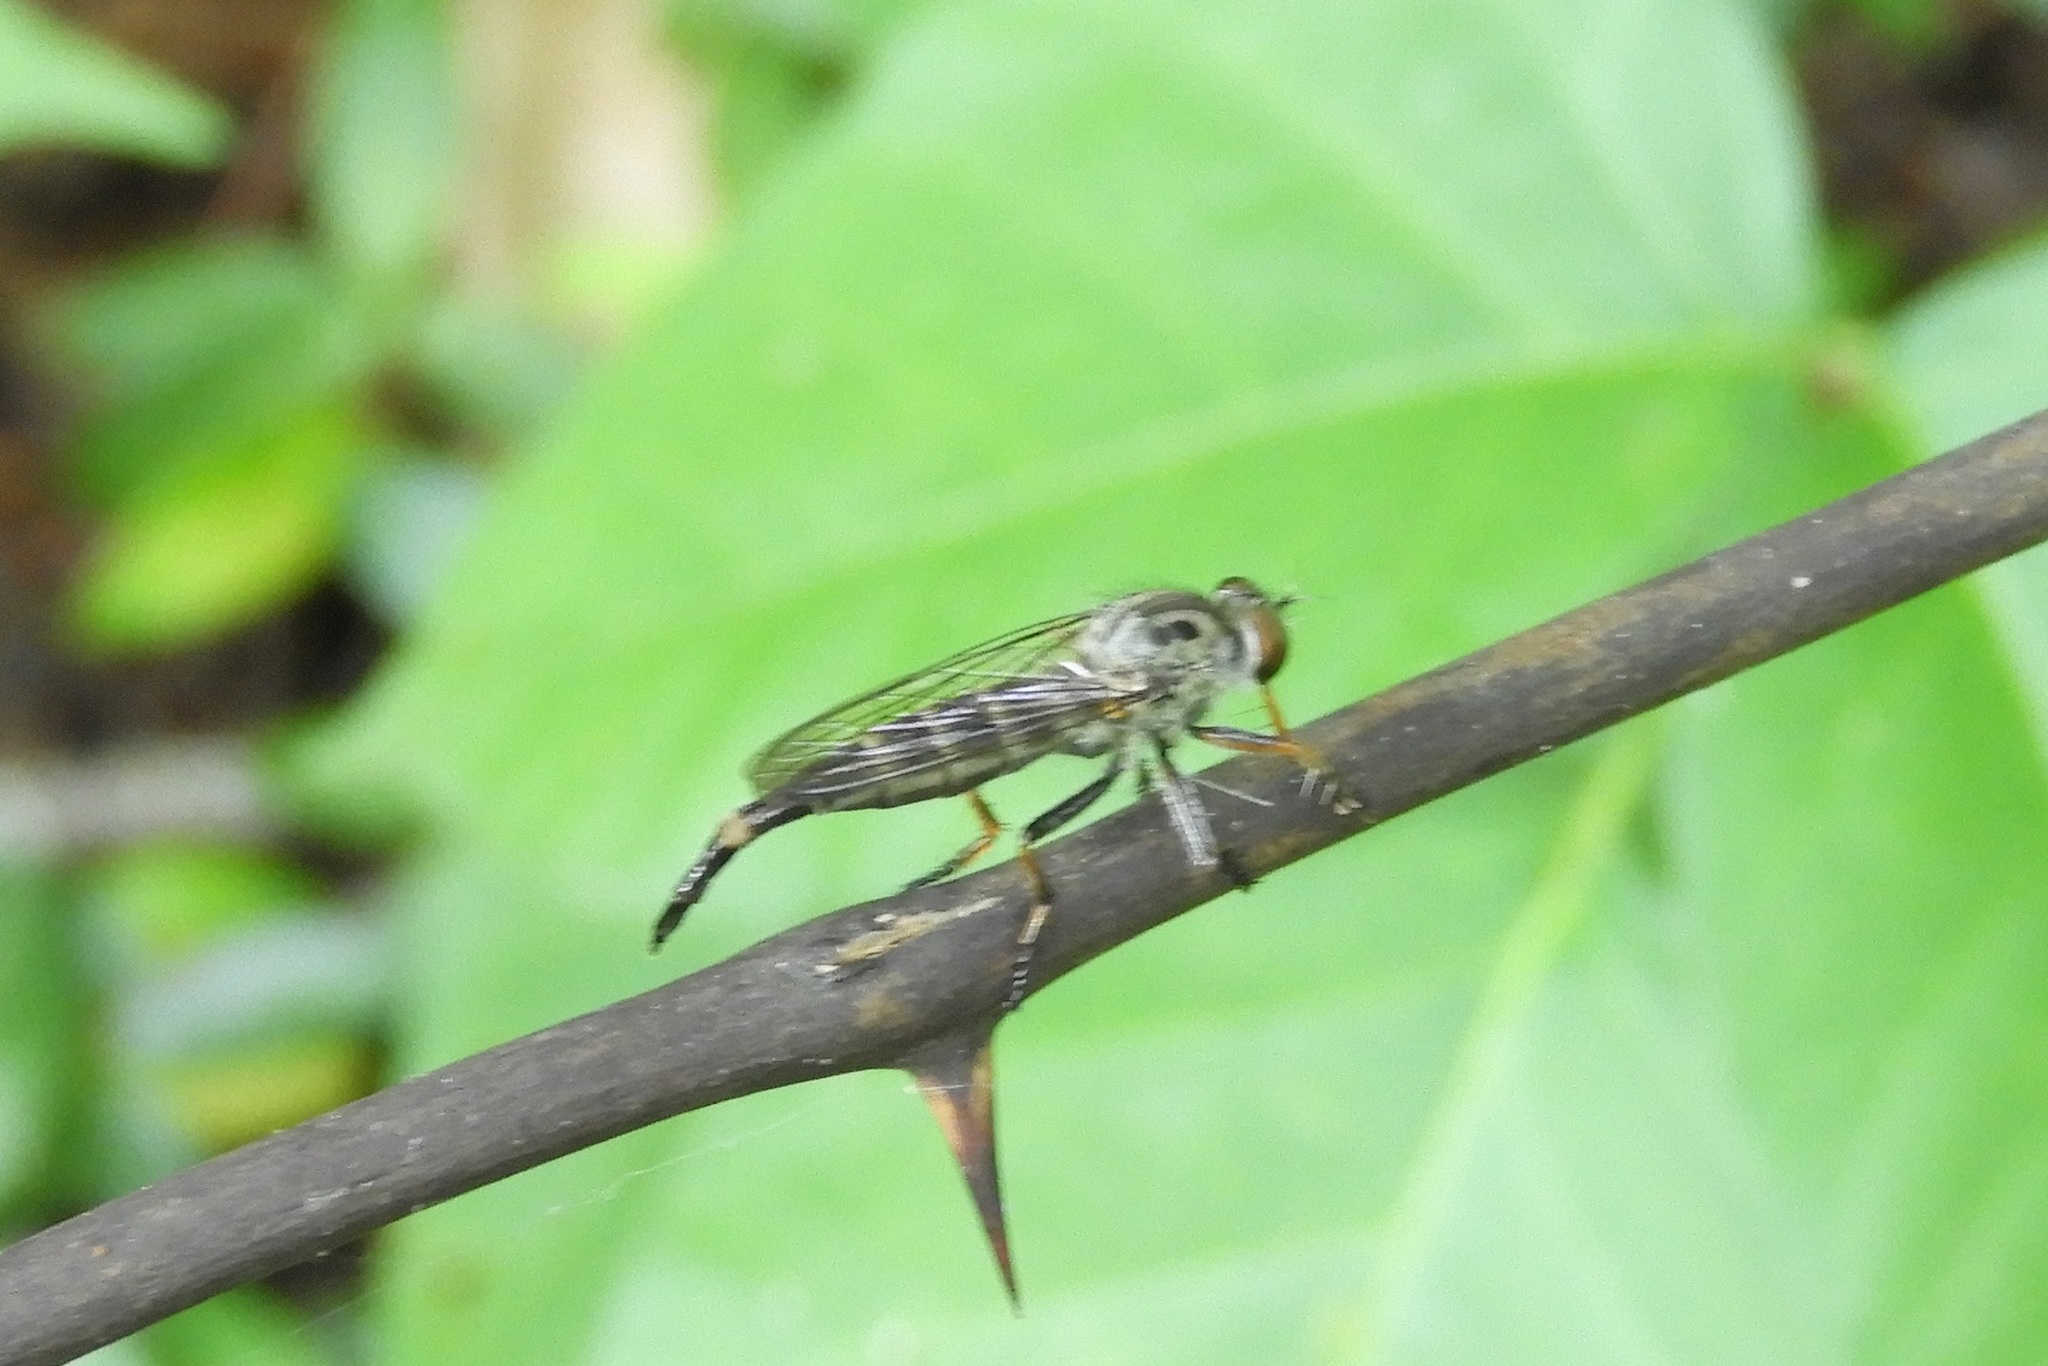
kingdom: Animalia
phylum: Arthropoda
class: Insecta
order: Diptera
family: Asilidae
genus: Asilus
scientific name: Asilus flavofemoratus
